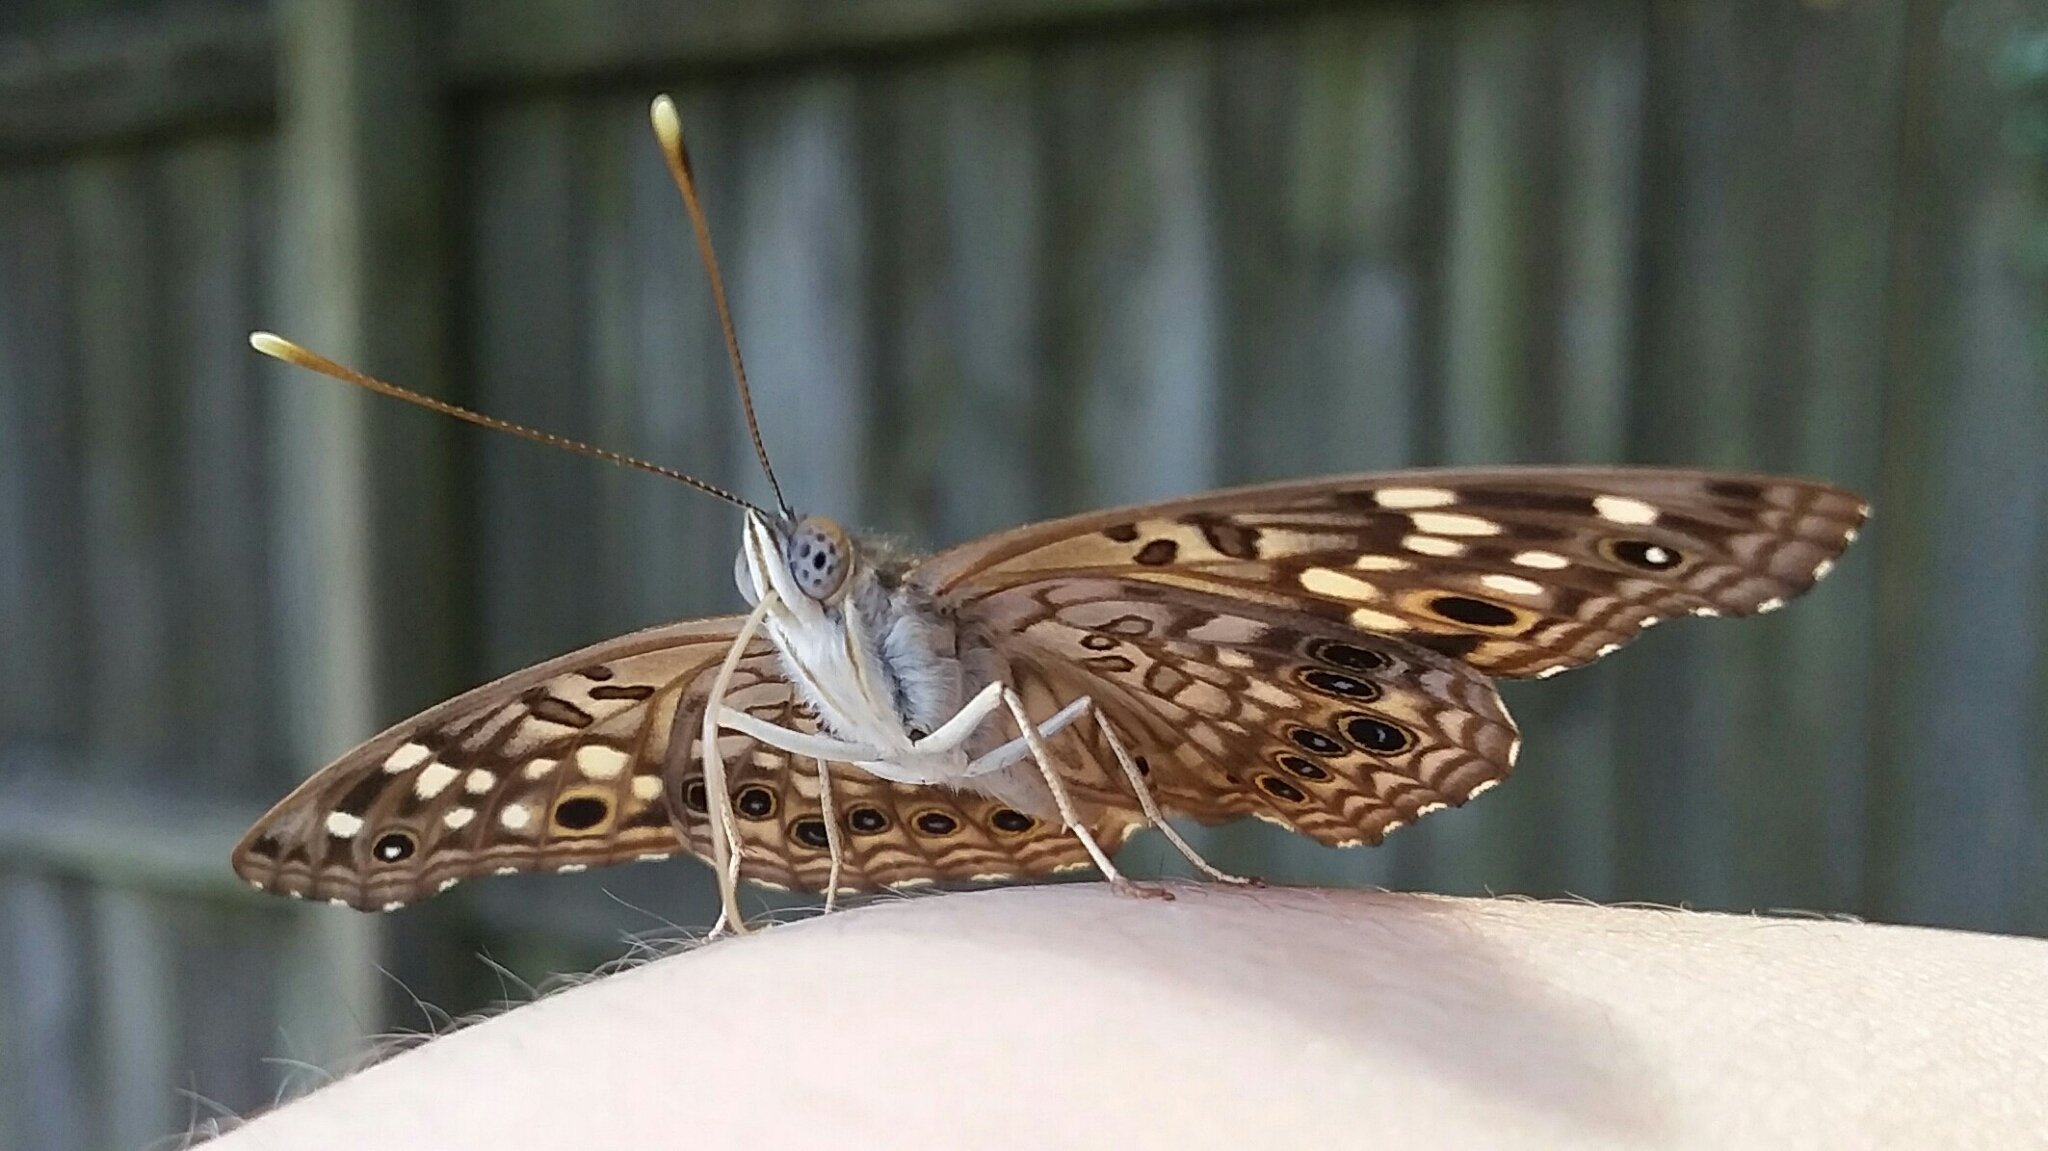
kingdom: Animalia
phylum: Arthropoda
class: Insecta
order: Lepidoptera
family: Nymphalidae
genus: Asterocampa
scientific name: Asterocampa celtis
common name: Hackberry emperor
